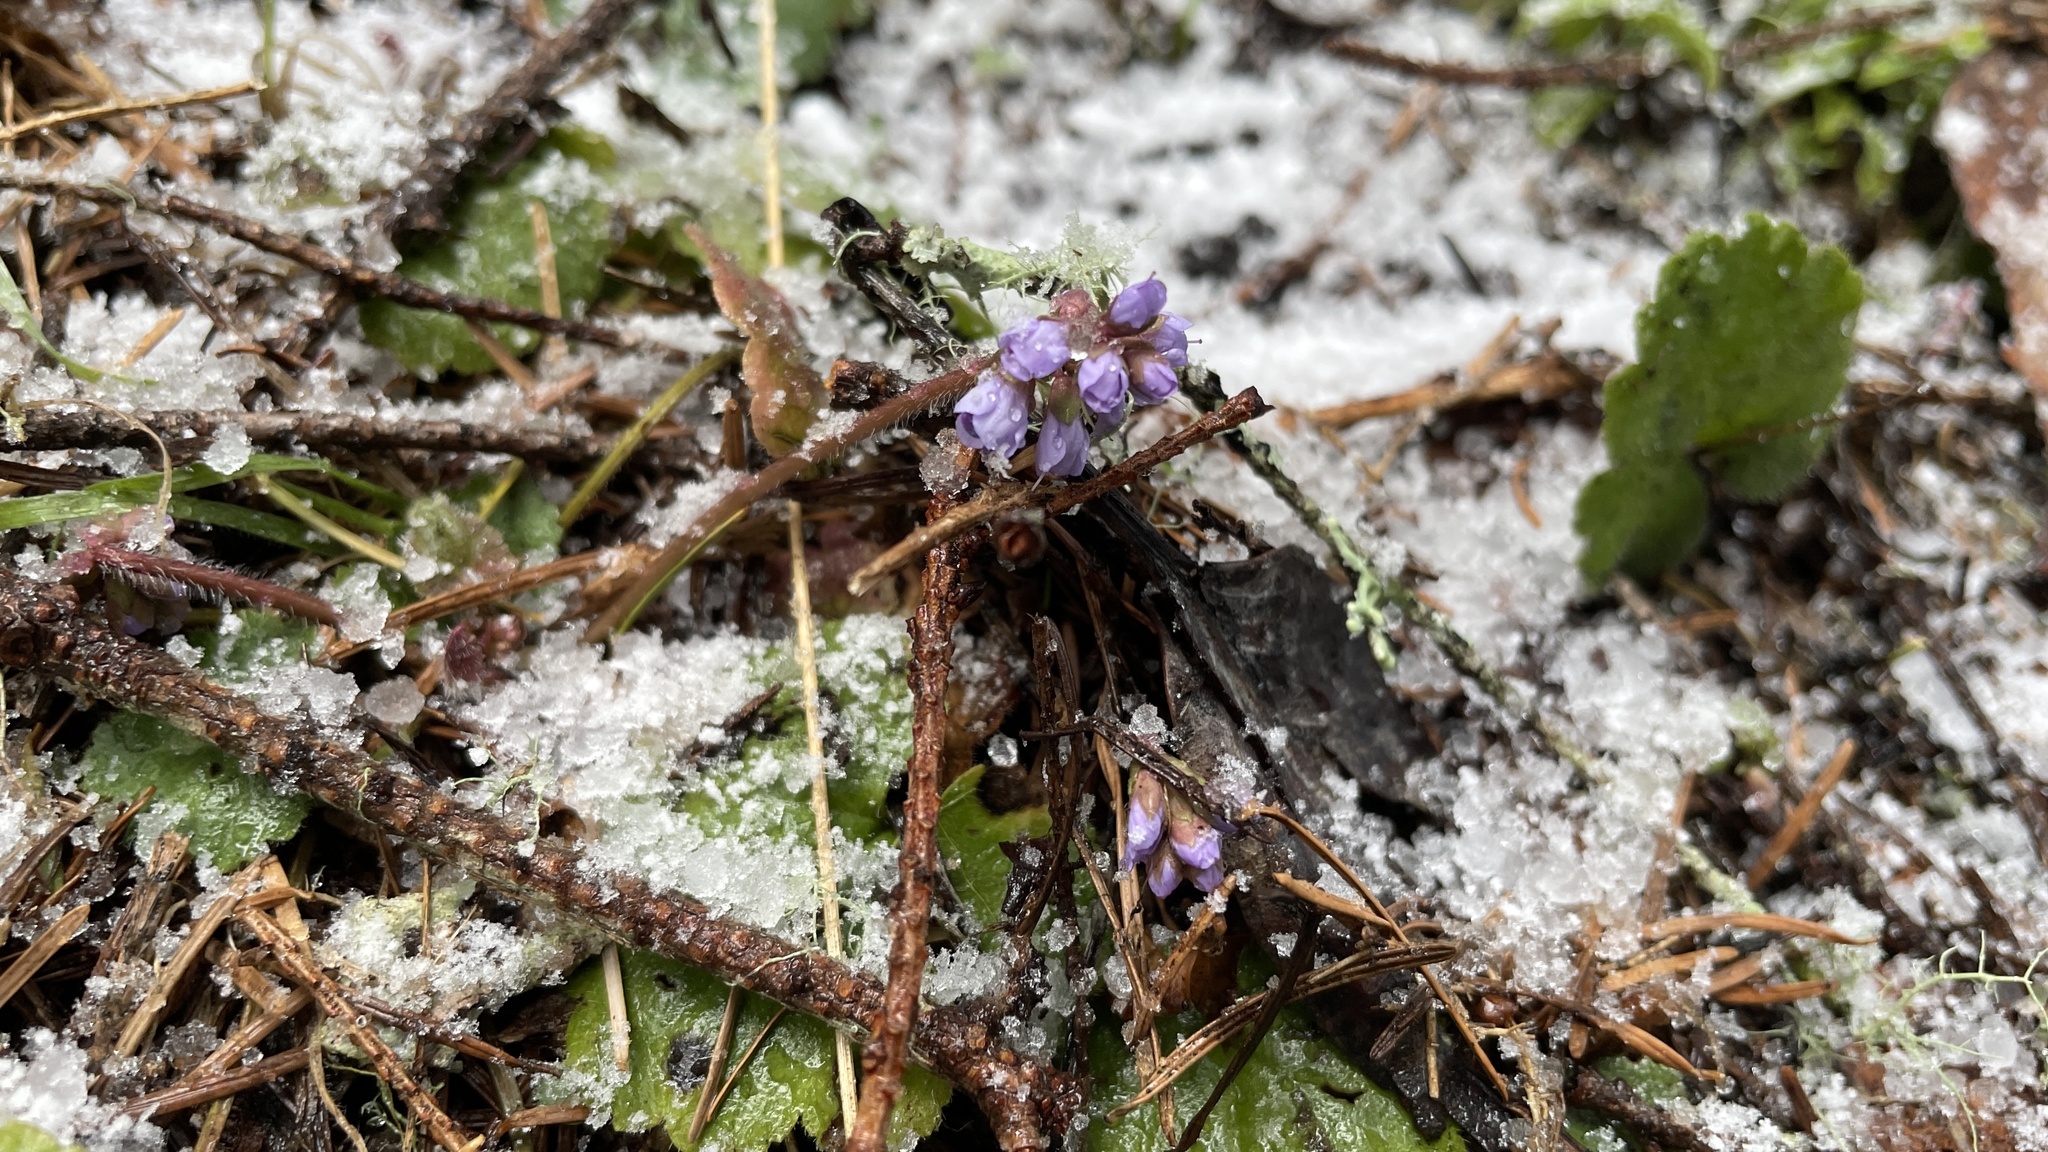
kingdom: Plantae
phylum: Tracheophyta
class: Magnoliopsida
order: Lamiales
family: Plantaginaceae
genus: Synthyris
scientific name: Synthyris reniformis
